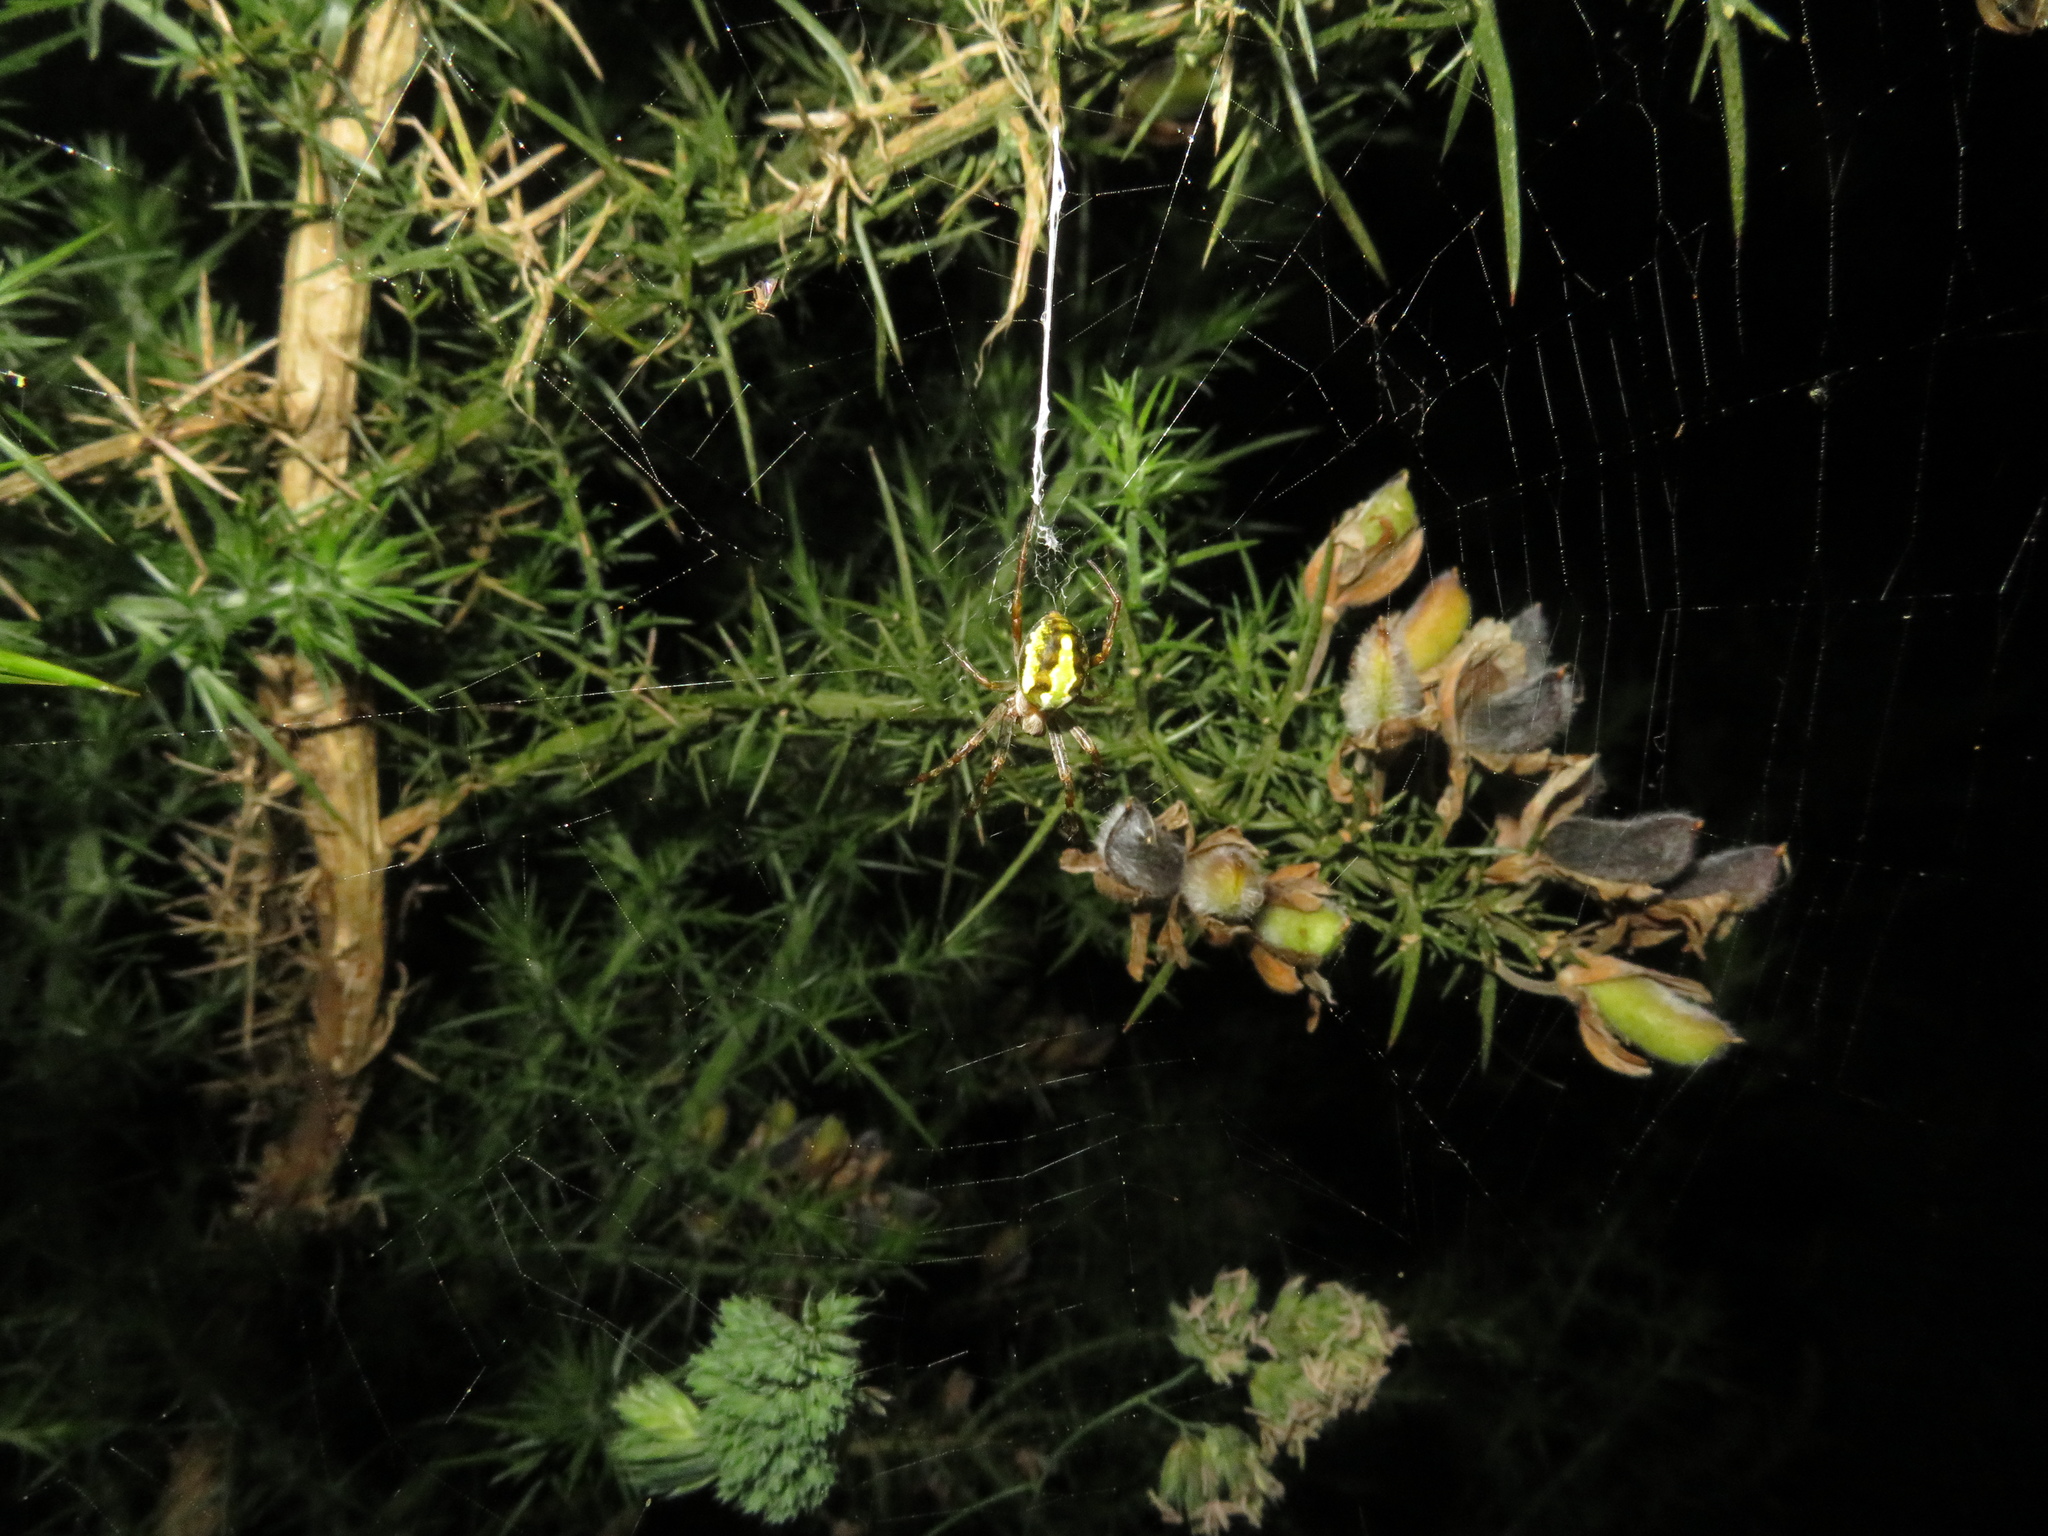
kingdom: Animalia
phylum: Arthropoda
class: Arachnida
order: Araneae
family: Araneidae
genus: Novaranea
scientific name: Novaranea queribunda
